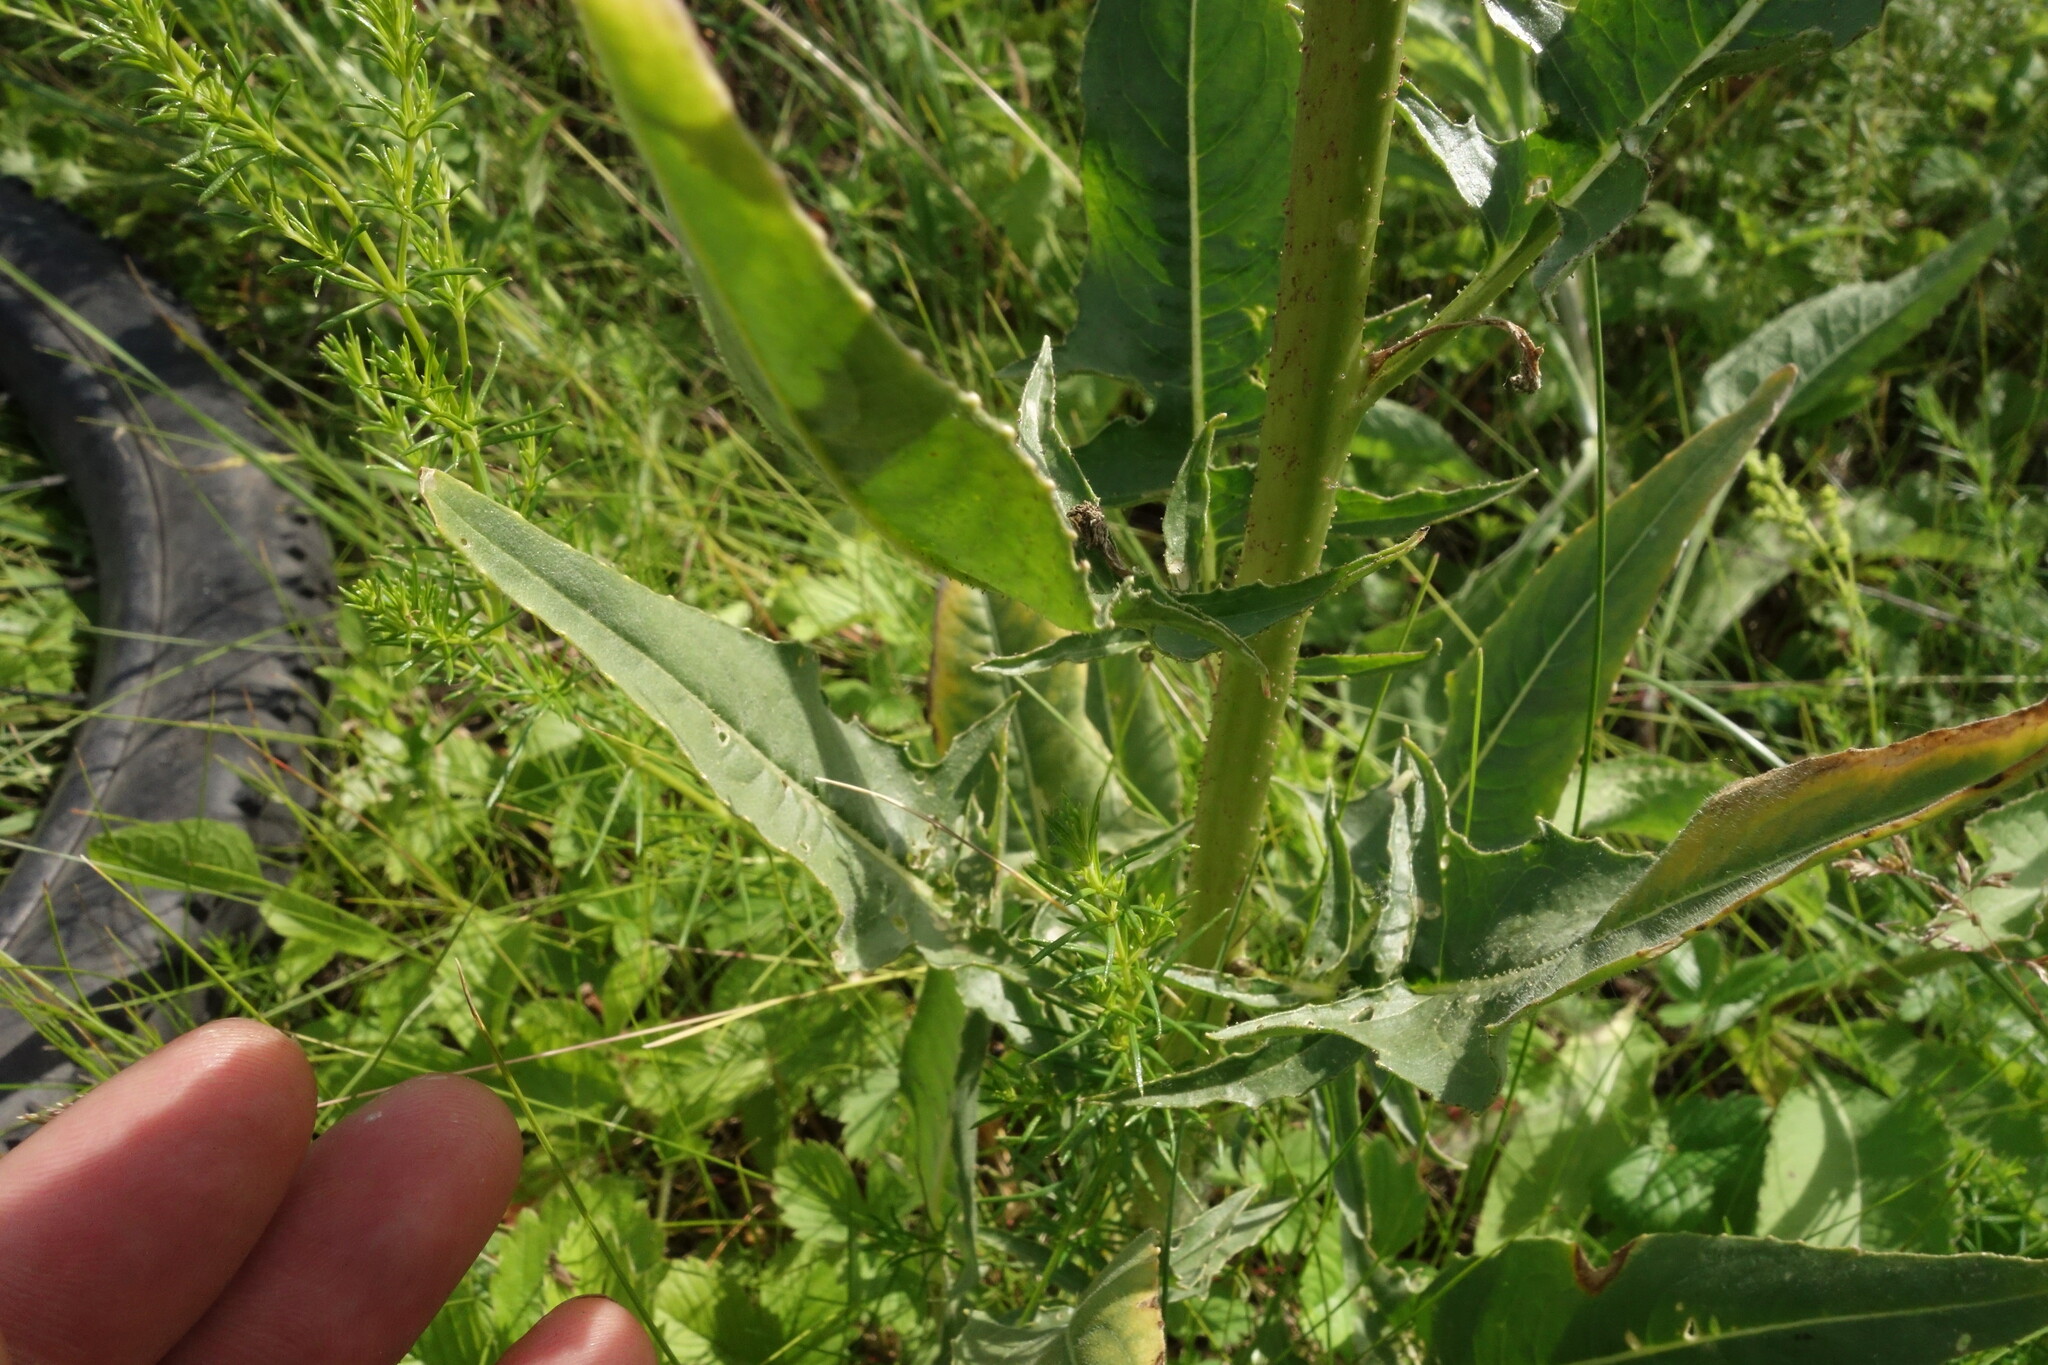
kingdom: Plantae
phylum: Tracheophyta
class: Magnoliopsida
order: Brassicales
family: Brassicaceae
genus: Bunias
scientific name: Bunias orientalis
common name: Warty-cabbage
